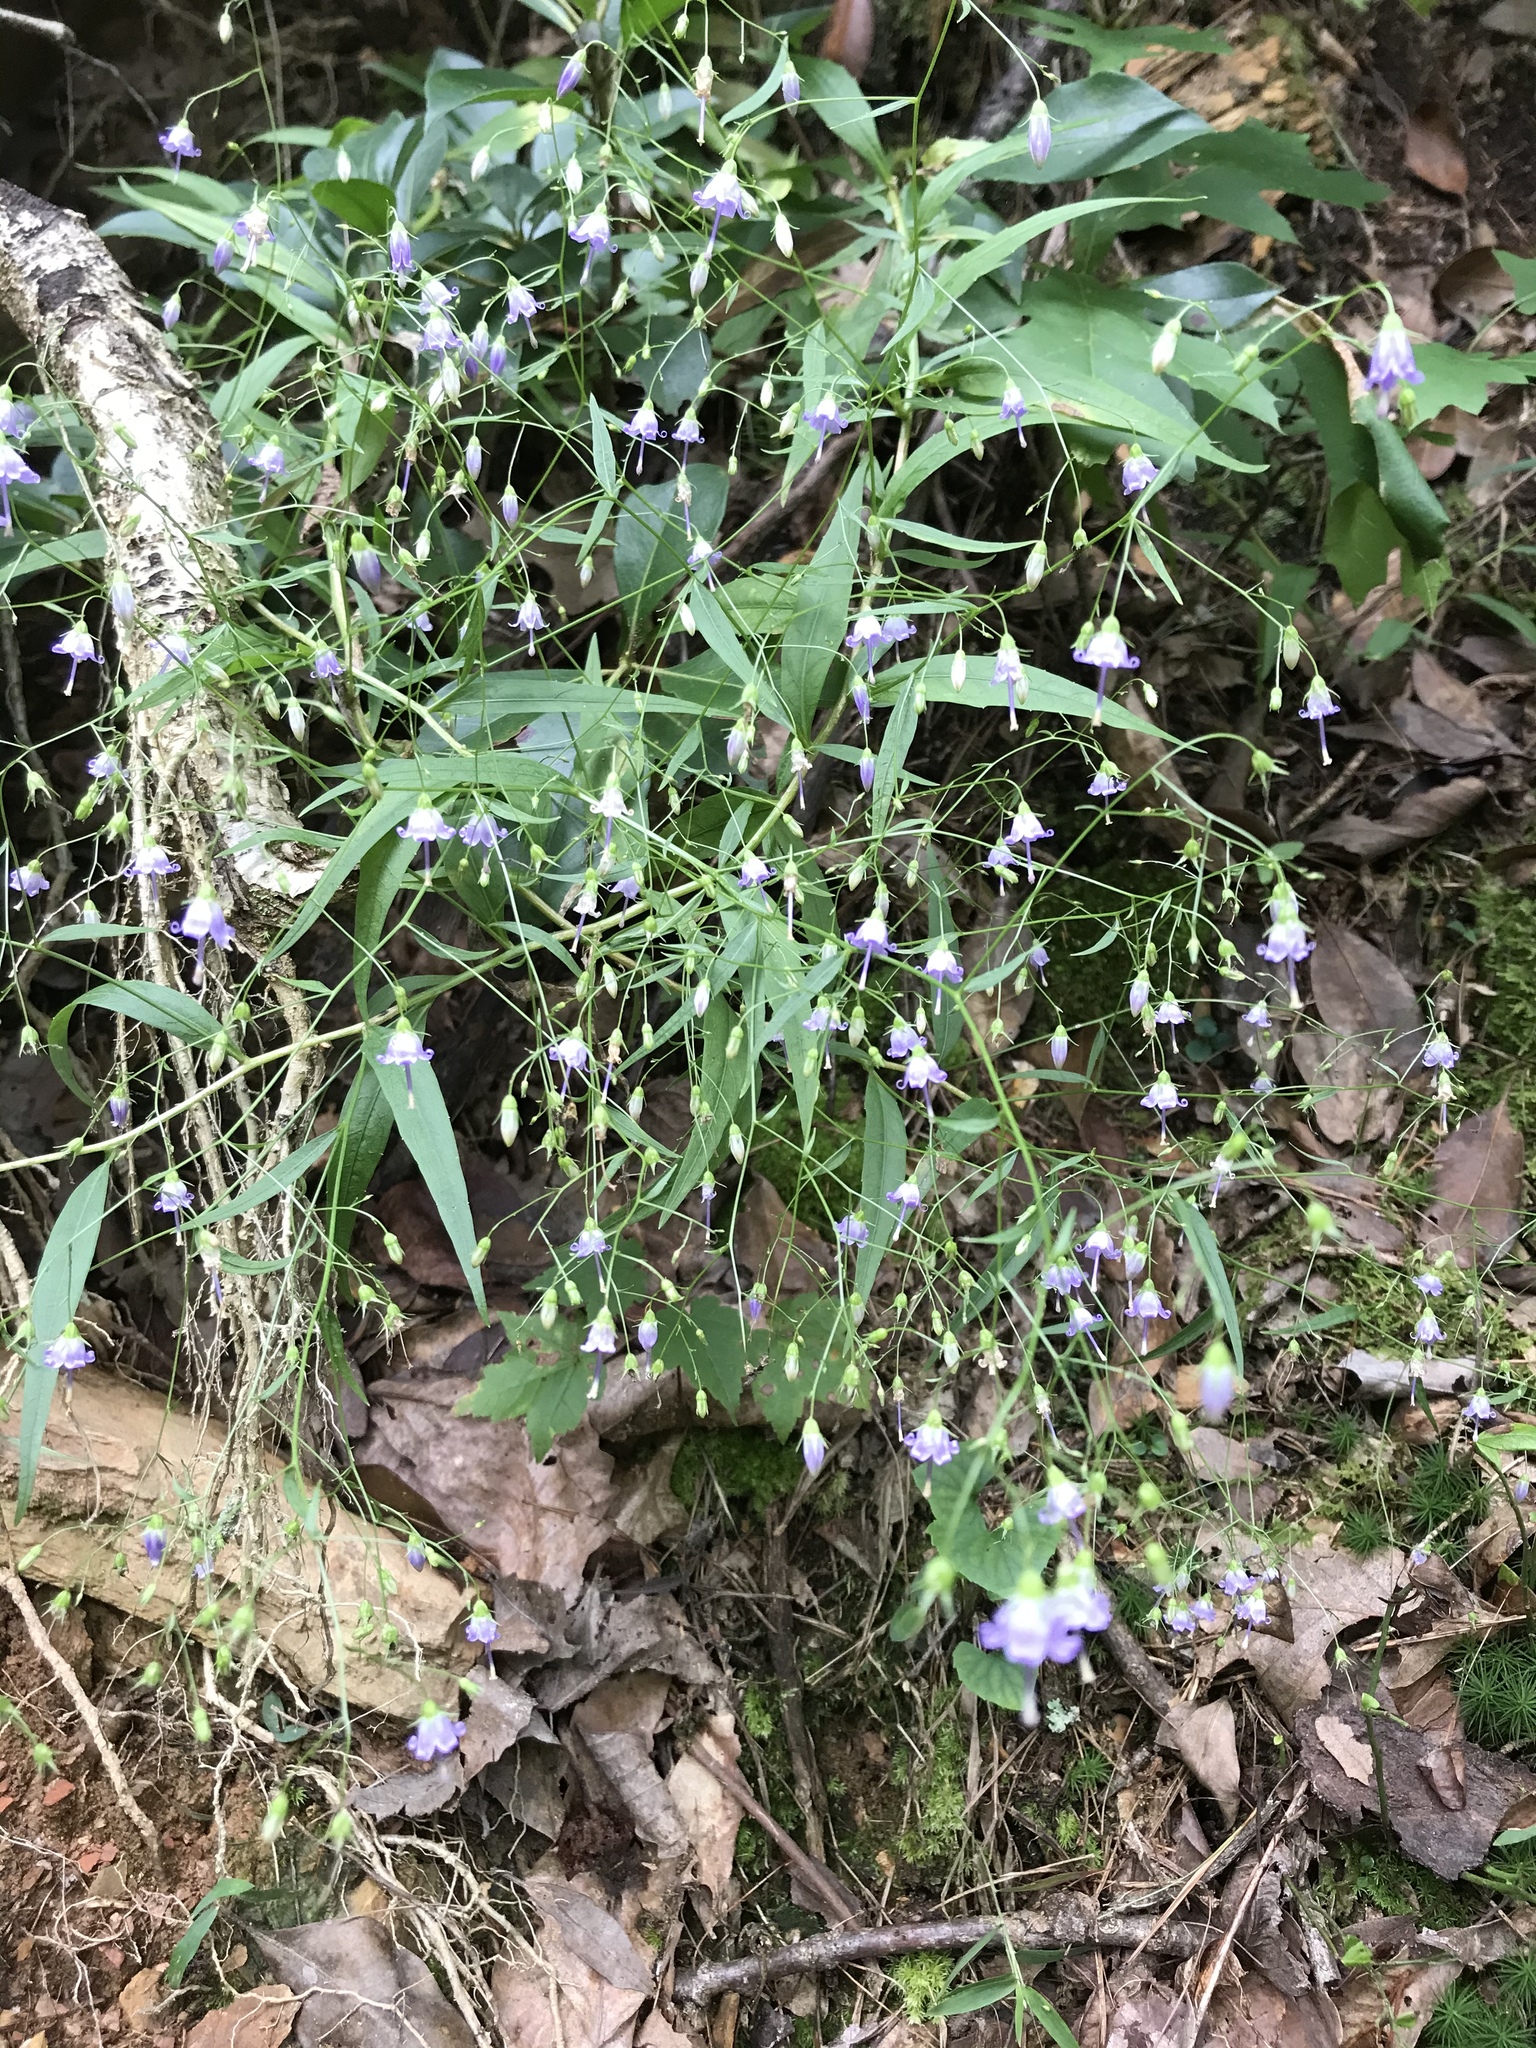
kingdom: Plantae
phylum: Tracheophyta
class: Magnoliopsida
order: Asterales
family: Campanulaceae
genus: Campanula
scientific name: Campanula divaricata
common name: Appalachian bellflower
